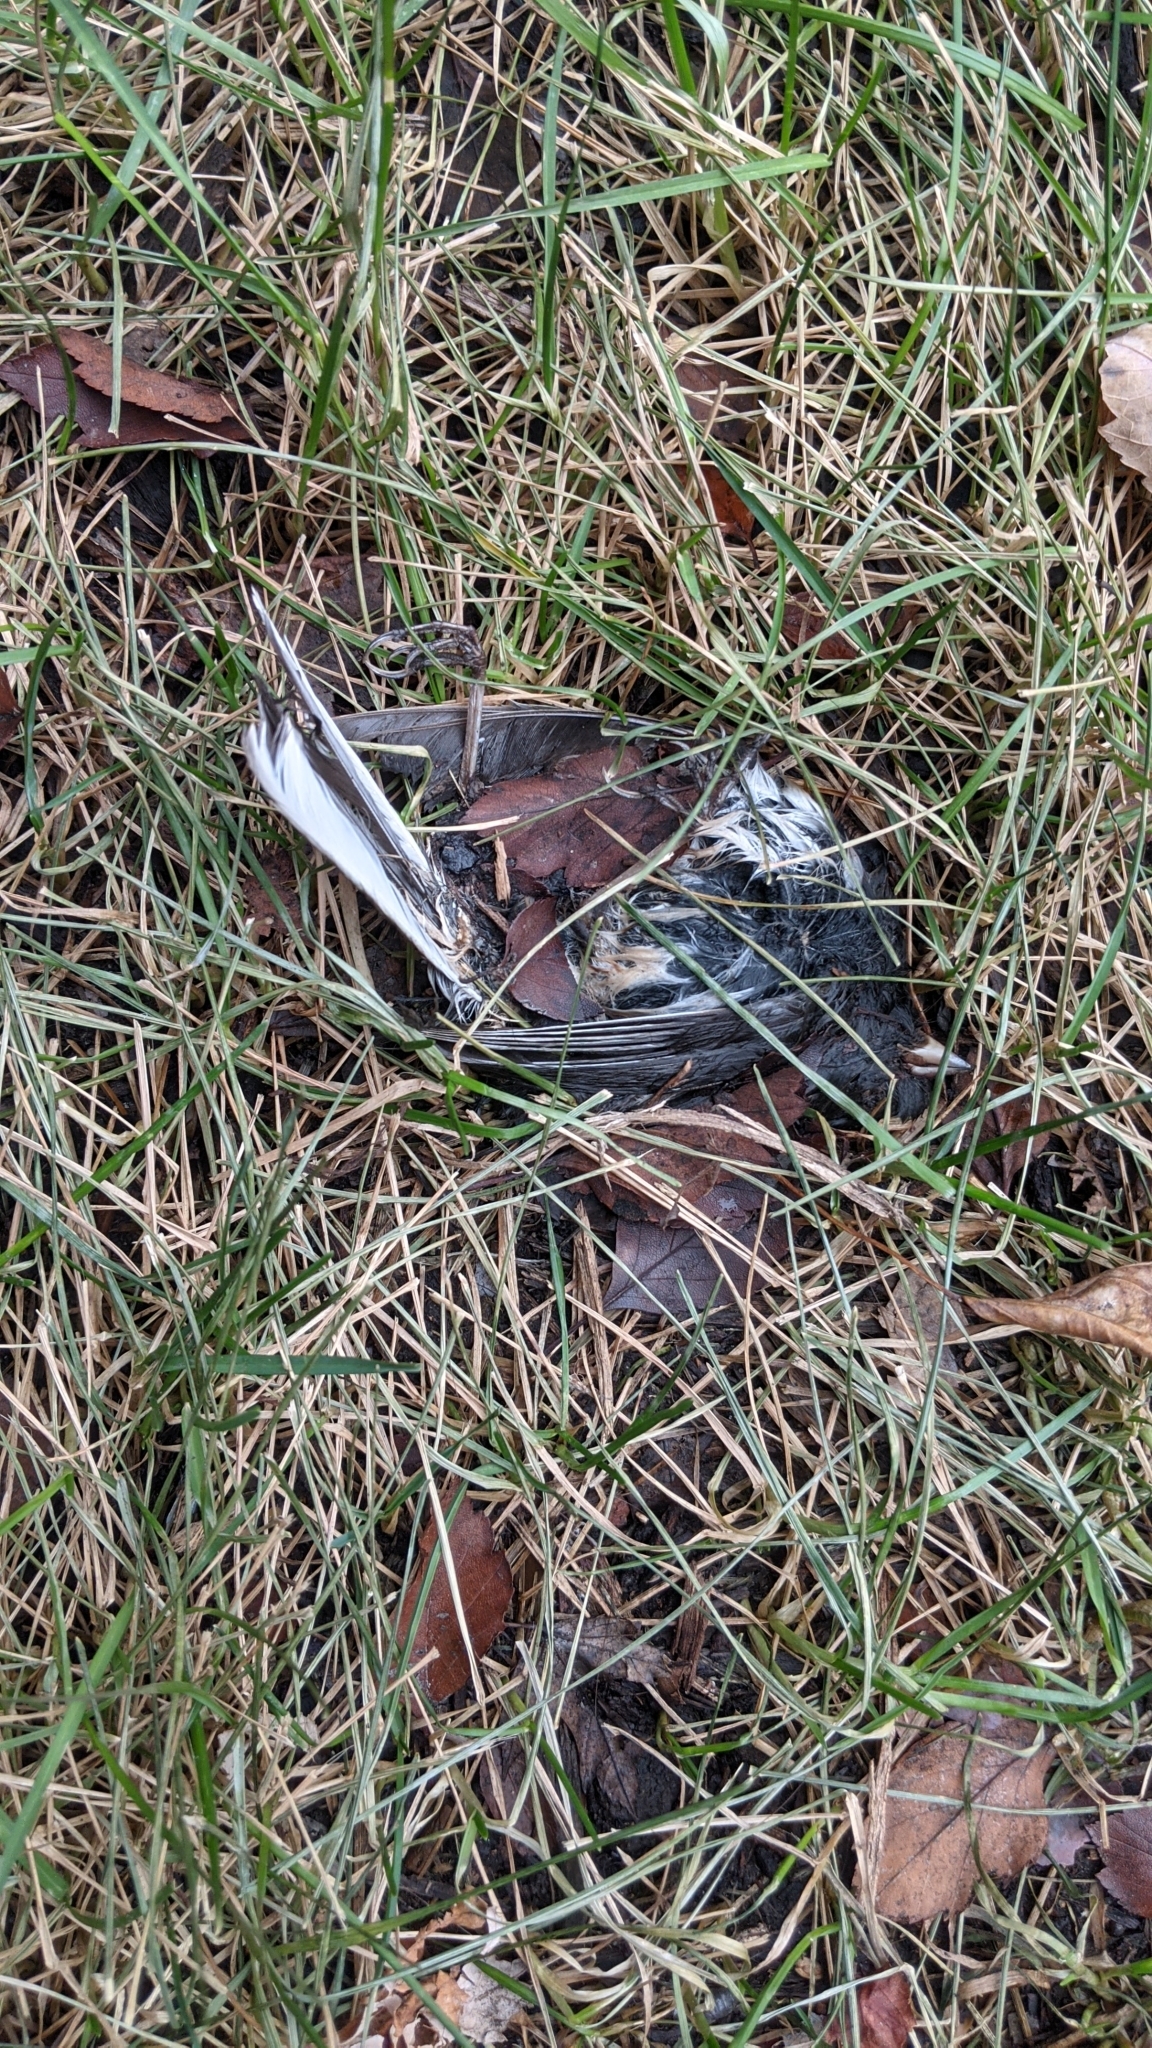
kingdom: Animalia
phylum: Chordata
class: Aves
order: Passeriformes
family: Passerellidae
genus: Junco
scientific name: Junco hyemalis
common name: Dark-eyed junco
